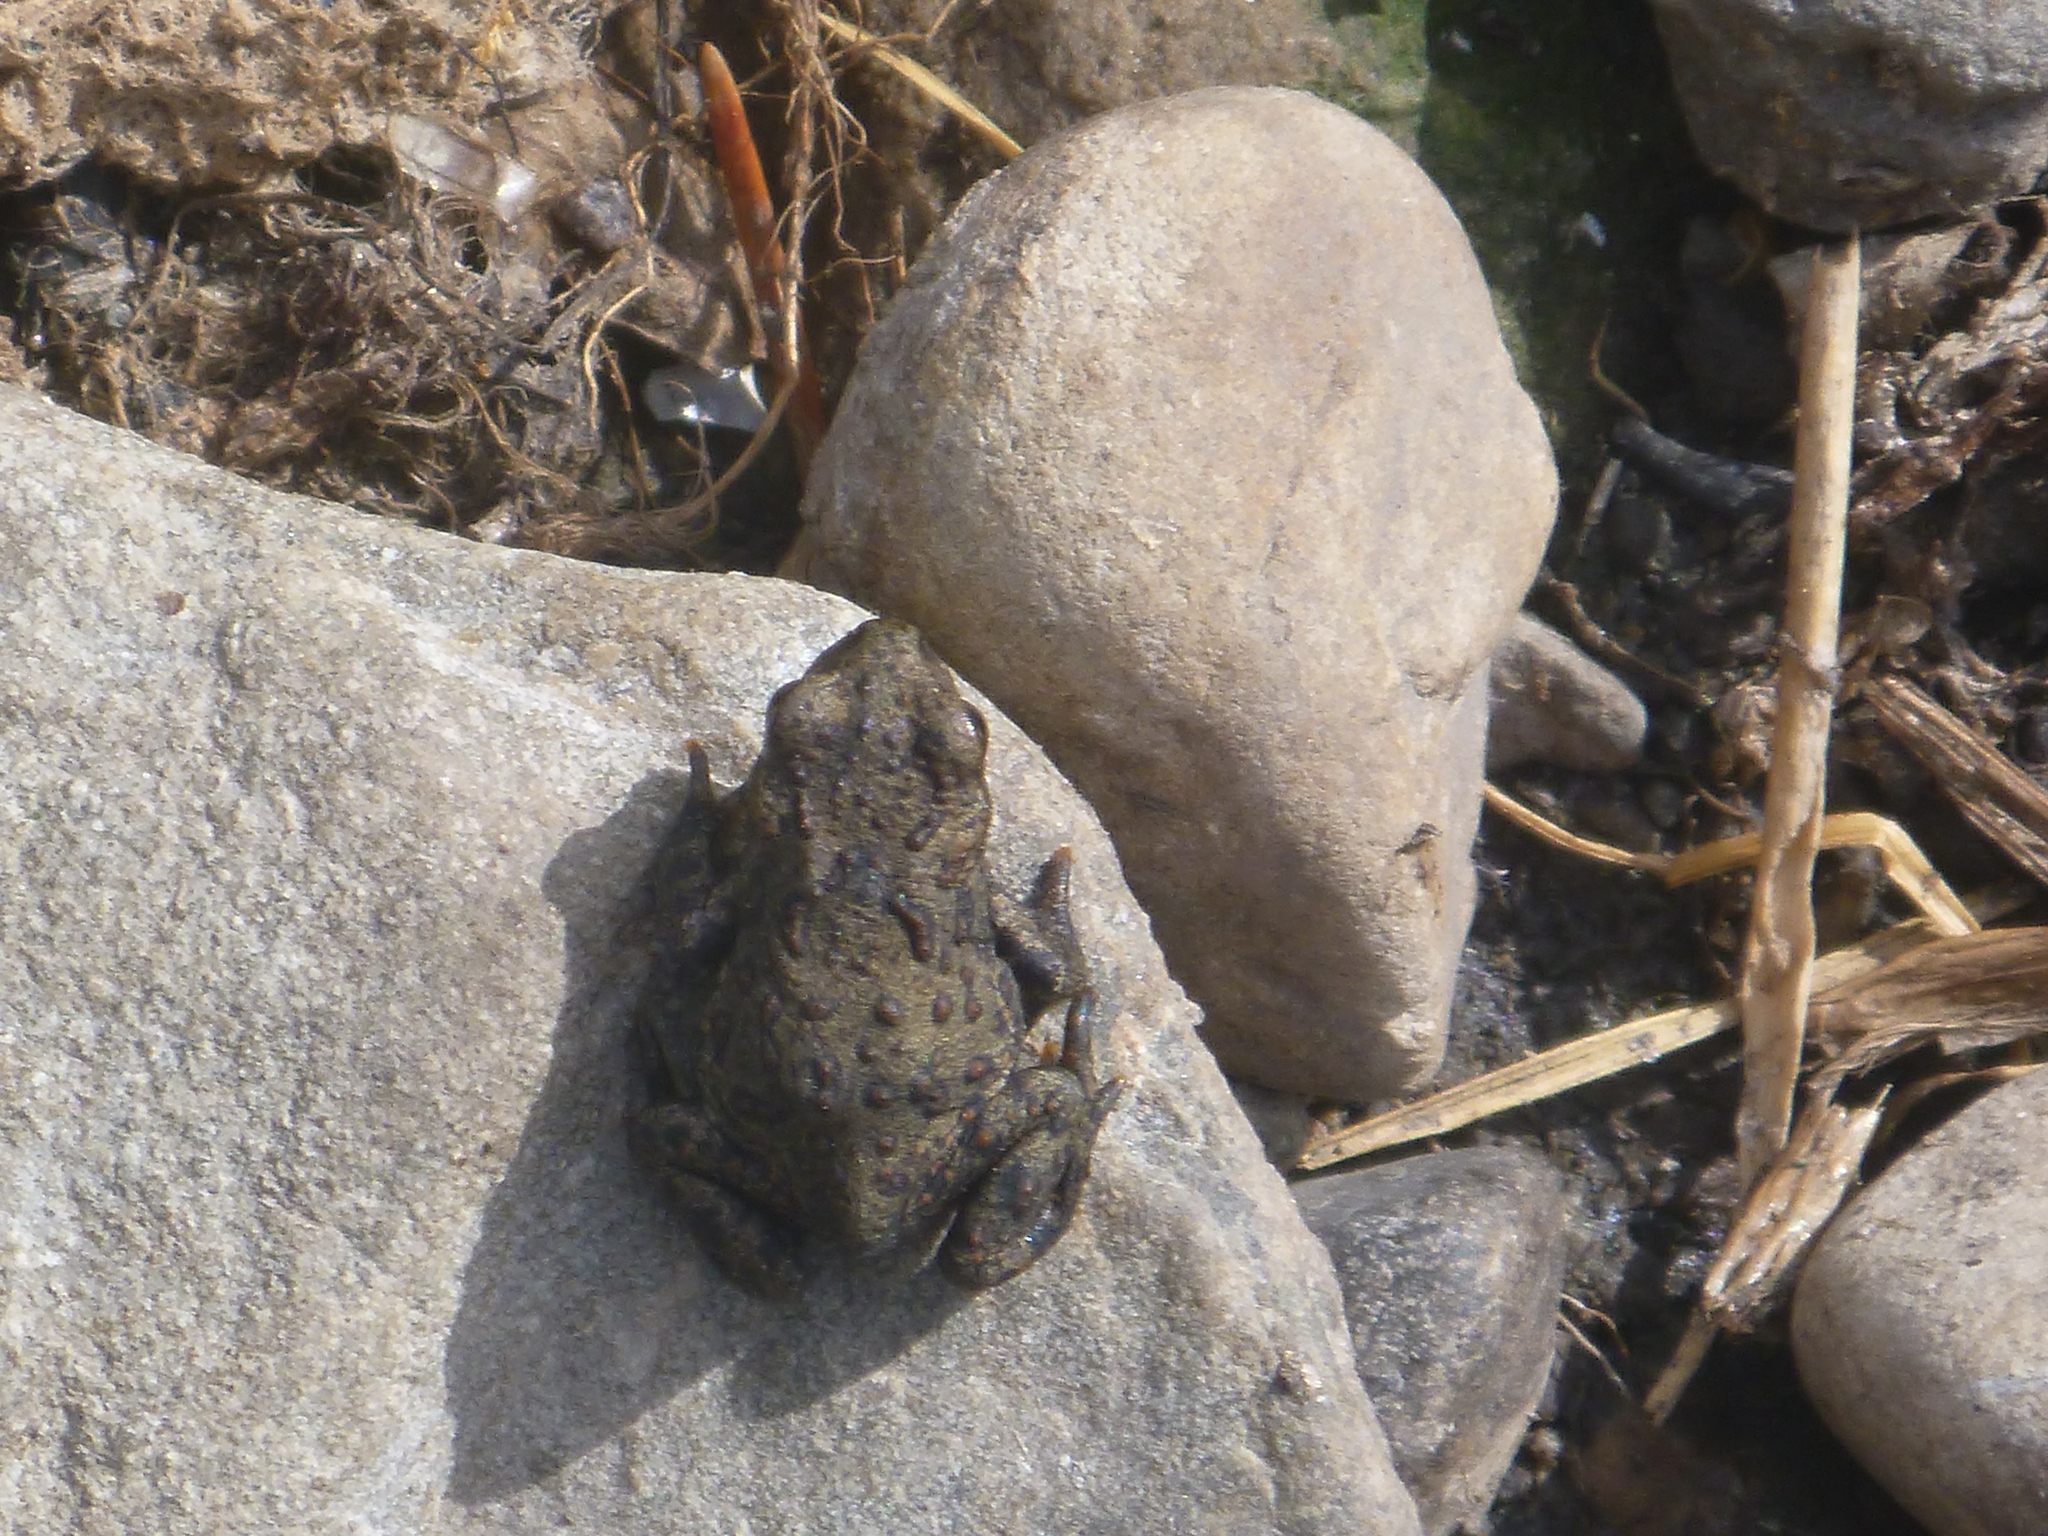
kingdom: Animalia
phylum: Chordata
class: Amphibia
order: Anura
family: Bufonidae
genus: Anaxyrus
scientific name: Anaxyrus boreas
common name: Western toad
